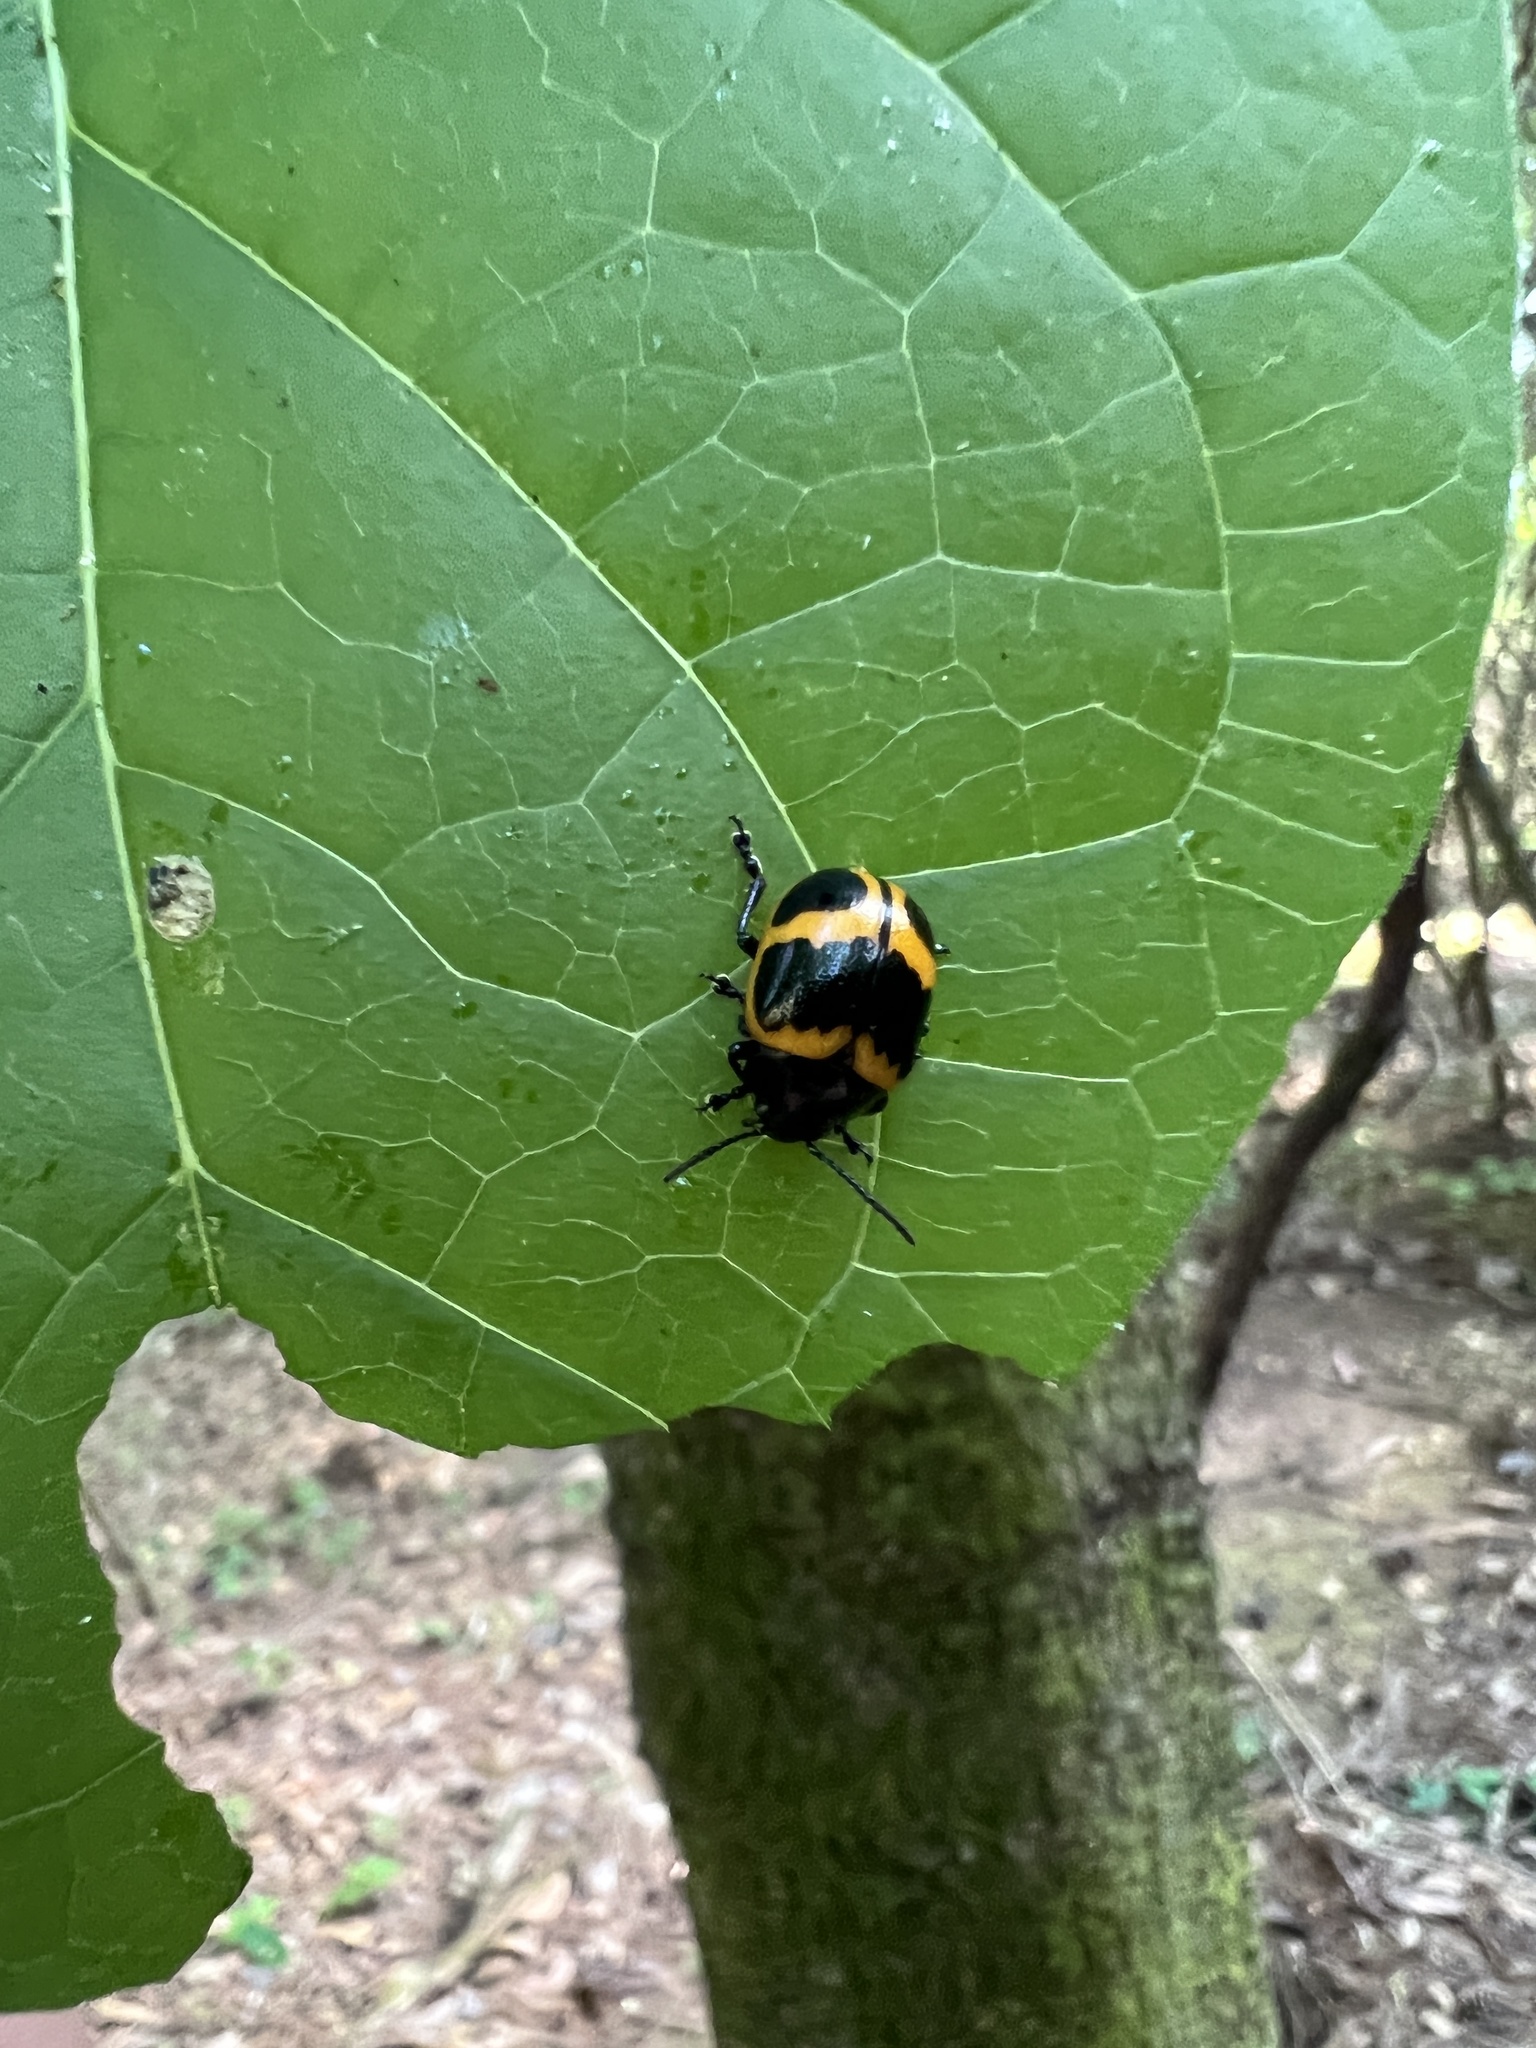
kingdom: Animalia
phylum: Arthropoda
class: Insecta
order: Coleoptera
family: Chrysomelidae
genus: Labidomera
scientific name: Labidomera clivicollis
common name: Swamp milkweed leaf beetle
